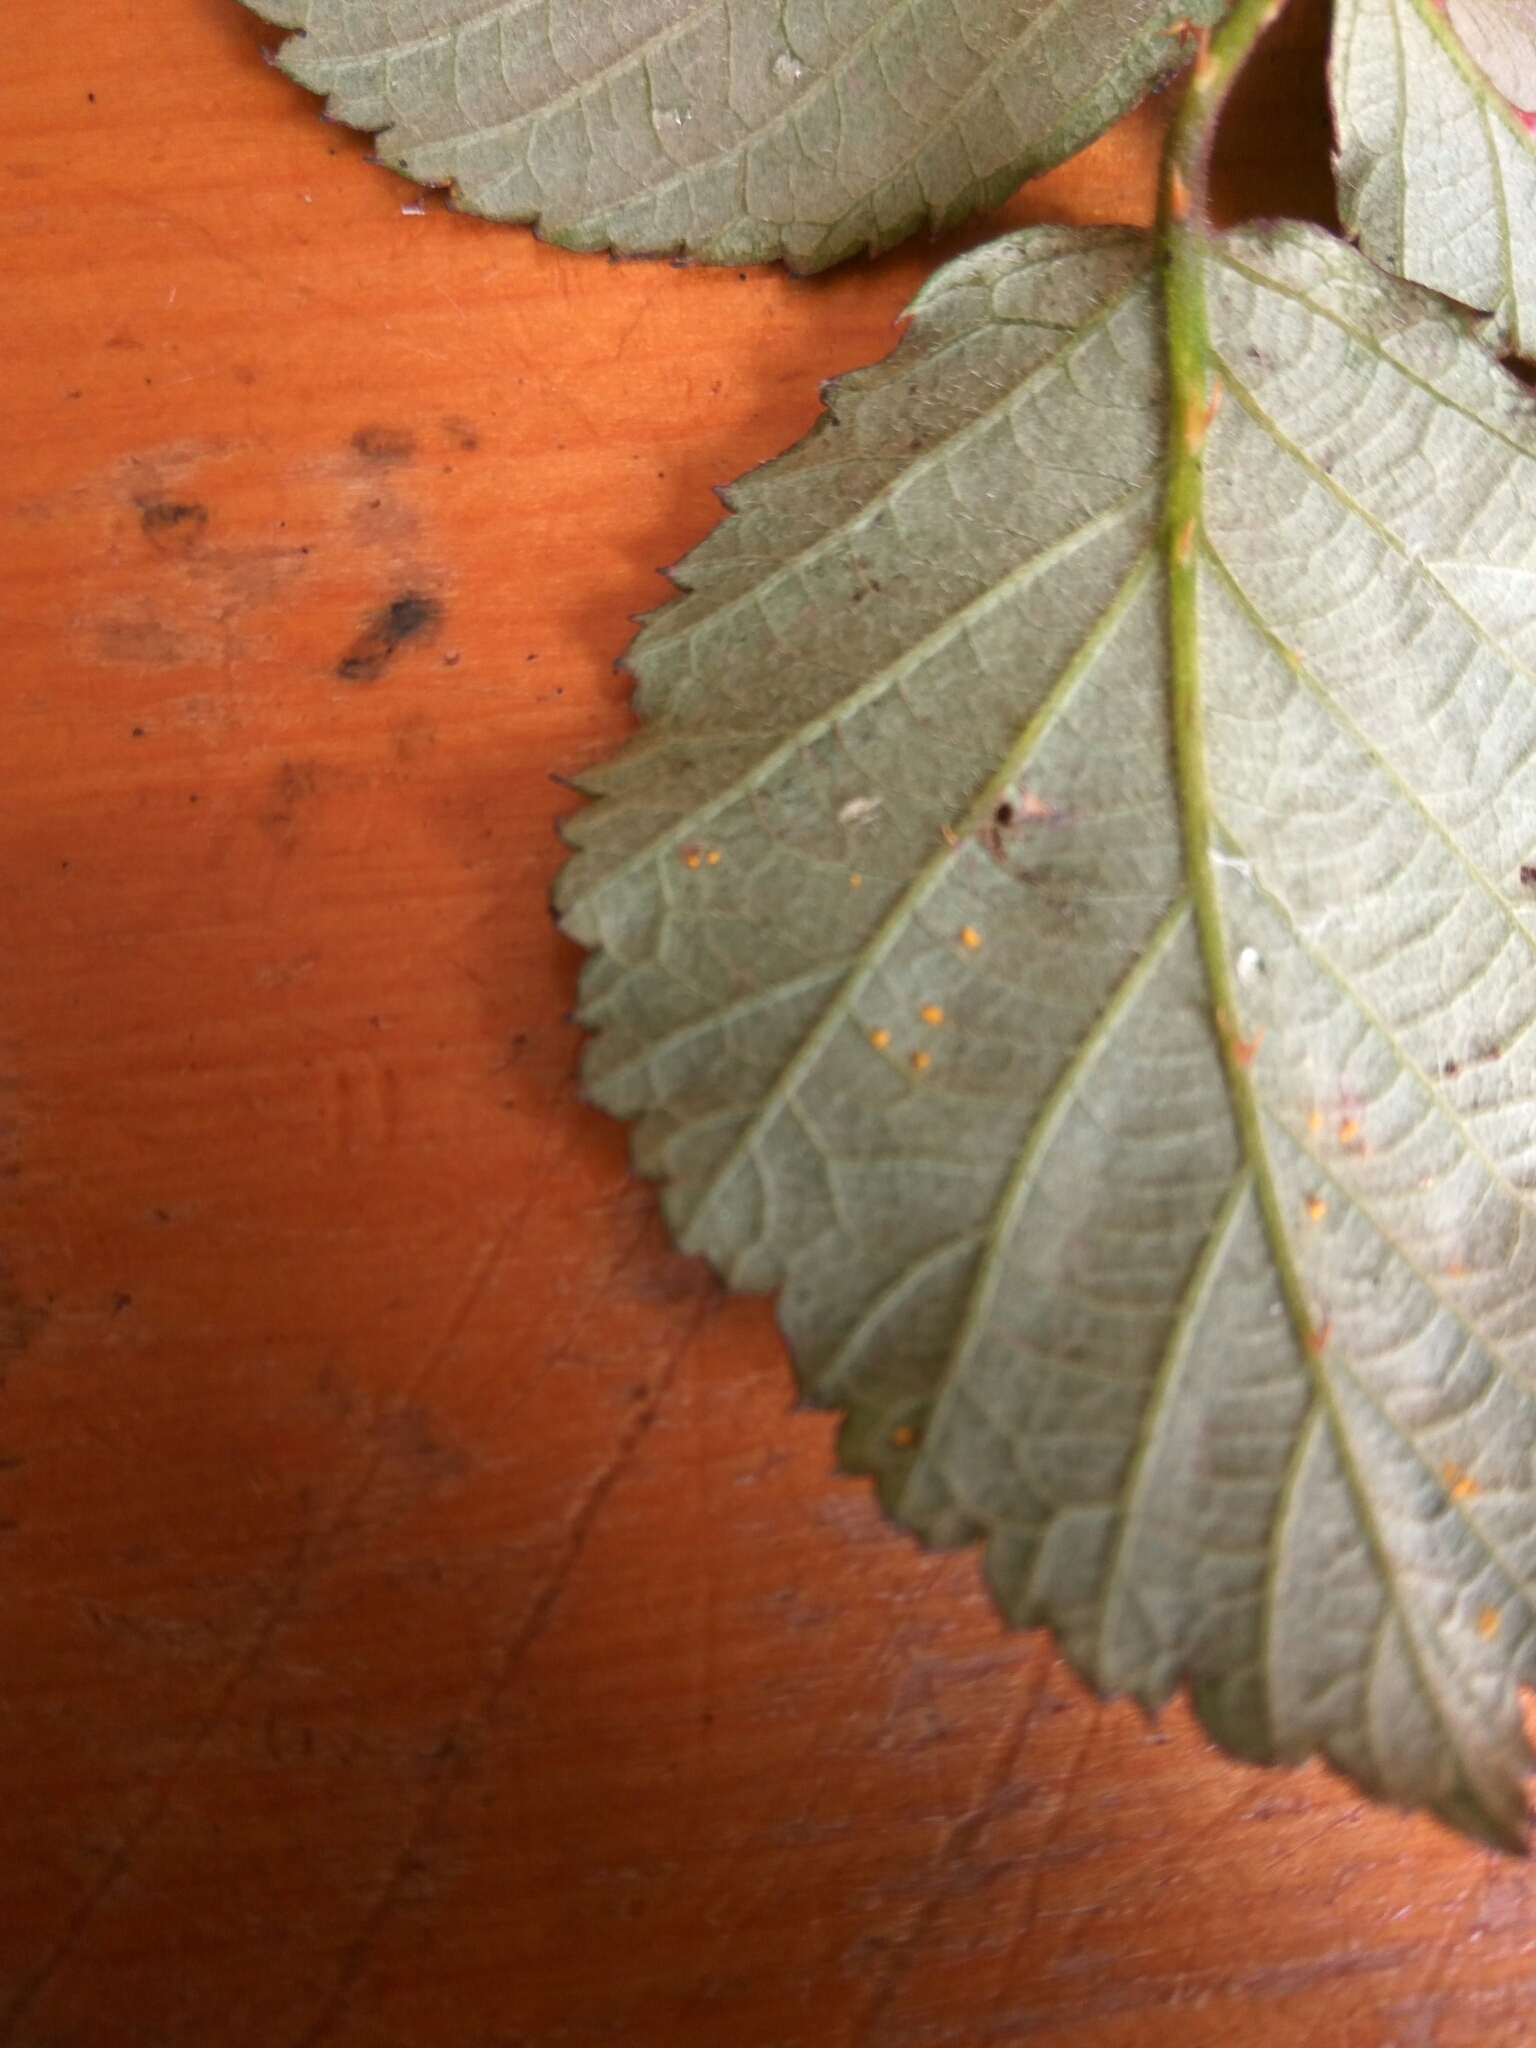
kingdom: Fungi
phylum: Basidiomycota
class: Pucciniomycetes
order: Pucciniales
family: Phragmidiaceae
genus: Phragmidium
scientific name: Phragmidium violaceum
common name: Violet bramble rust
